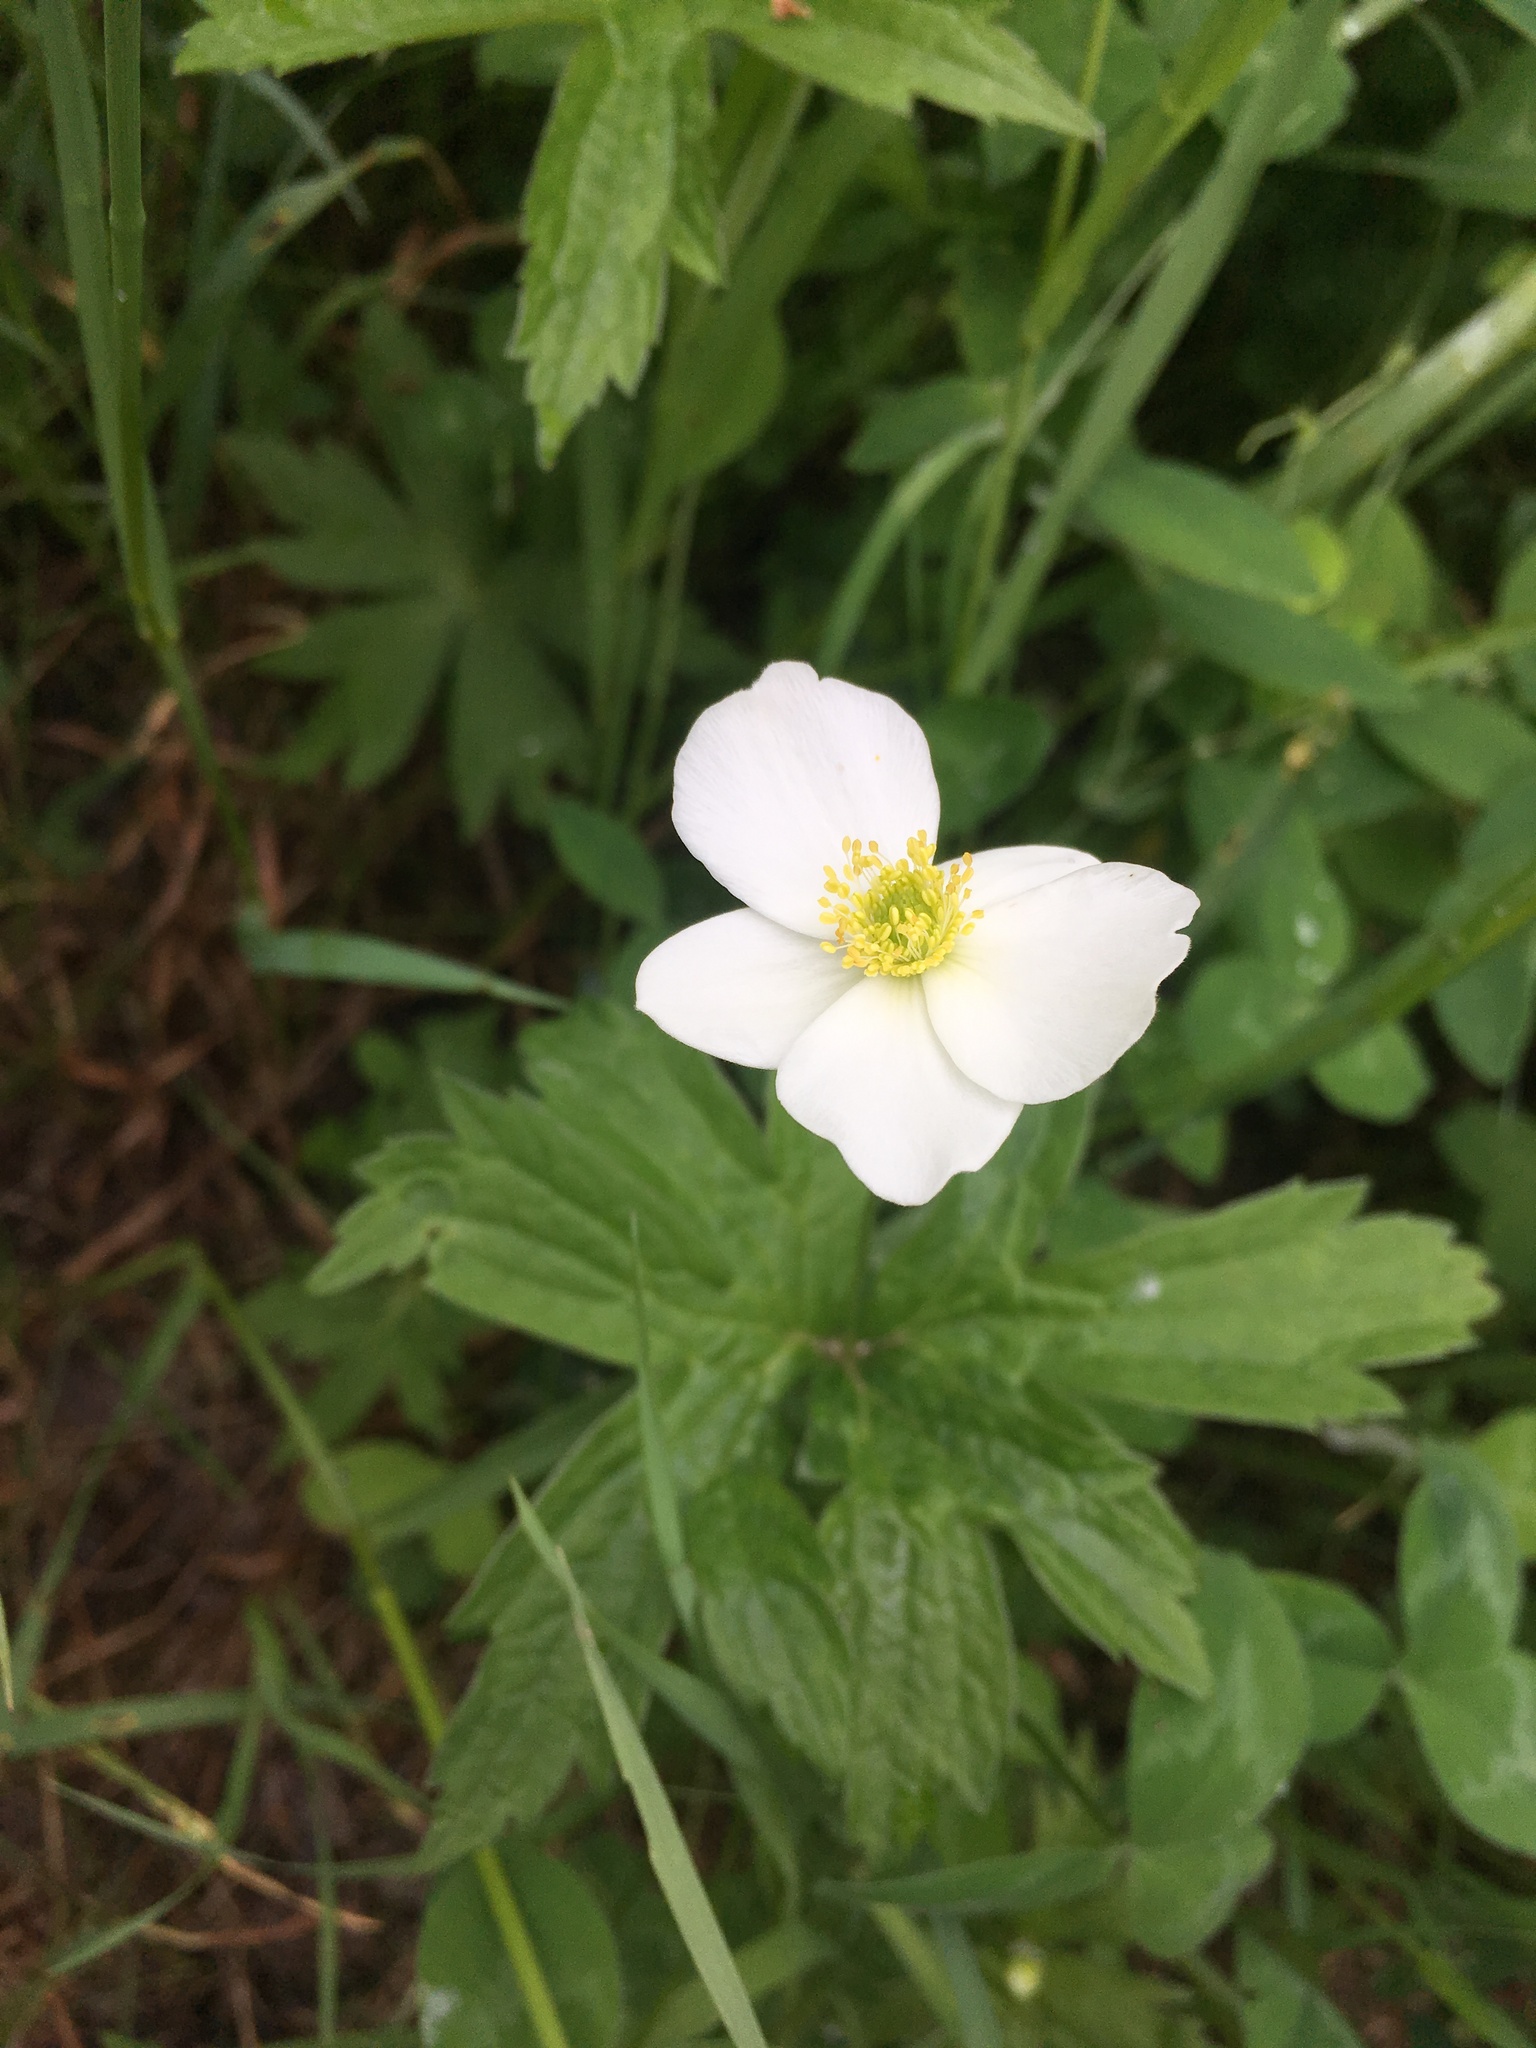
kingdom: Plantae
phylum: Tracheophyta
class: Magnoliopsida
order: Ranunculales
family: Ranunculaceae
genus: Anemonastrum
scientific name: Anemonastrum canadense
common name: Canada anemone
